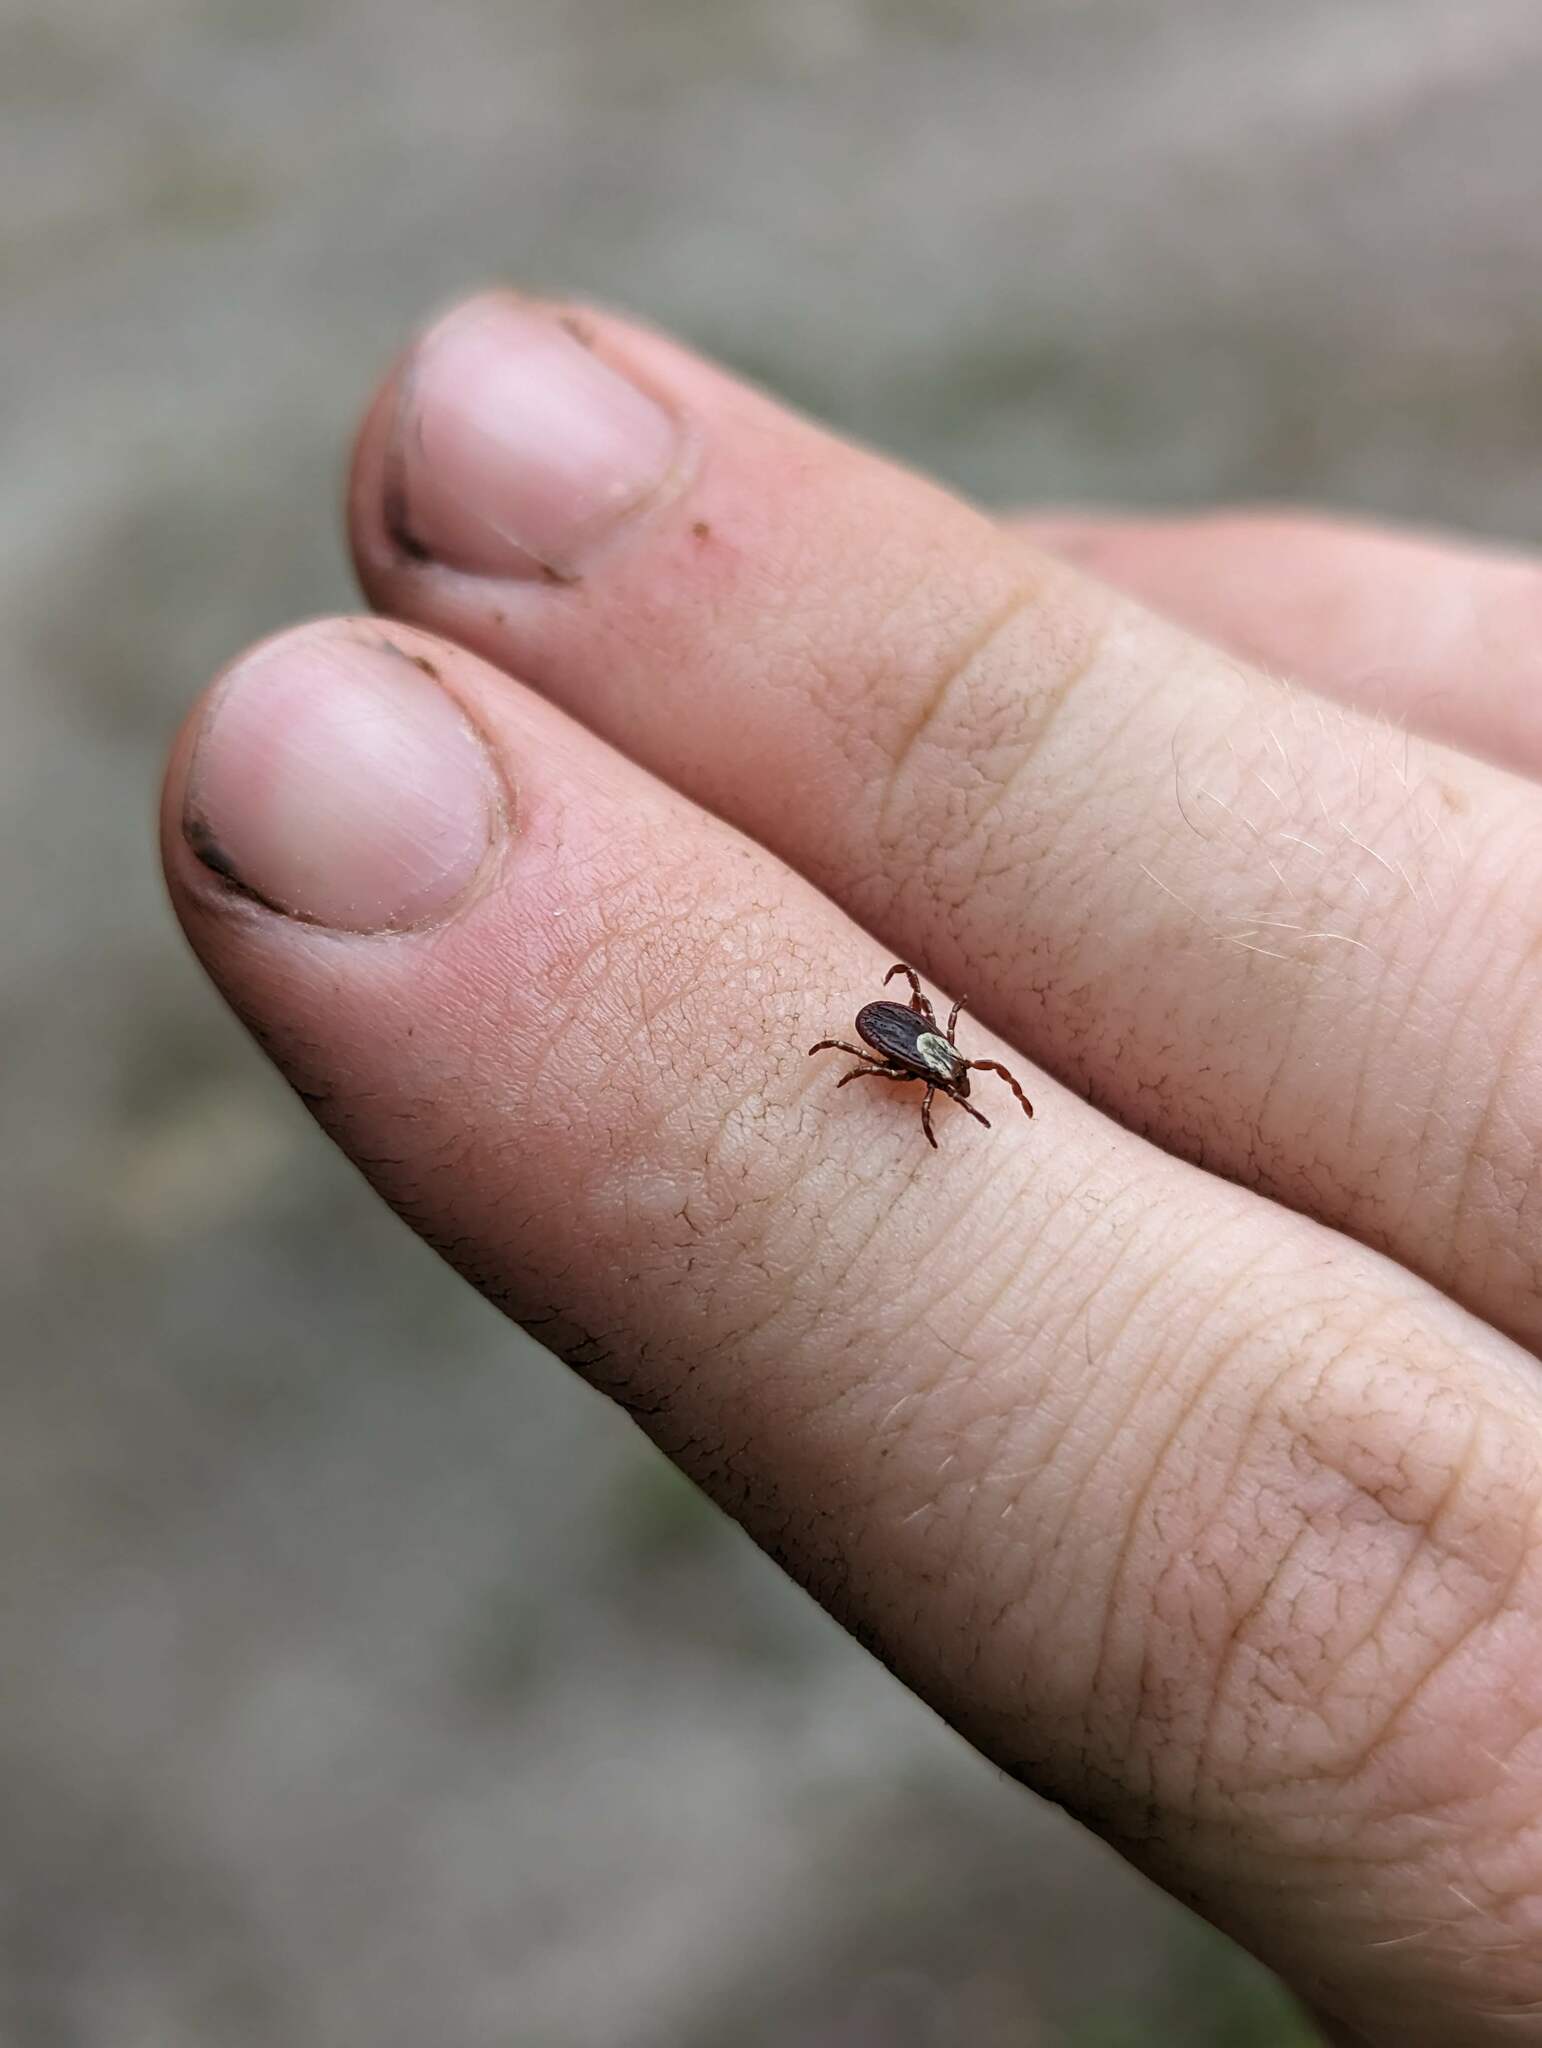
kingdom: Animalia
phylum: Arthropoda
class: Arachnida
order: Ixodida
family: Ixodidae
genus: Dermacentor
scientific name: Dermacentor variabilis
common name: American dog tick
